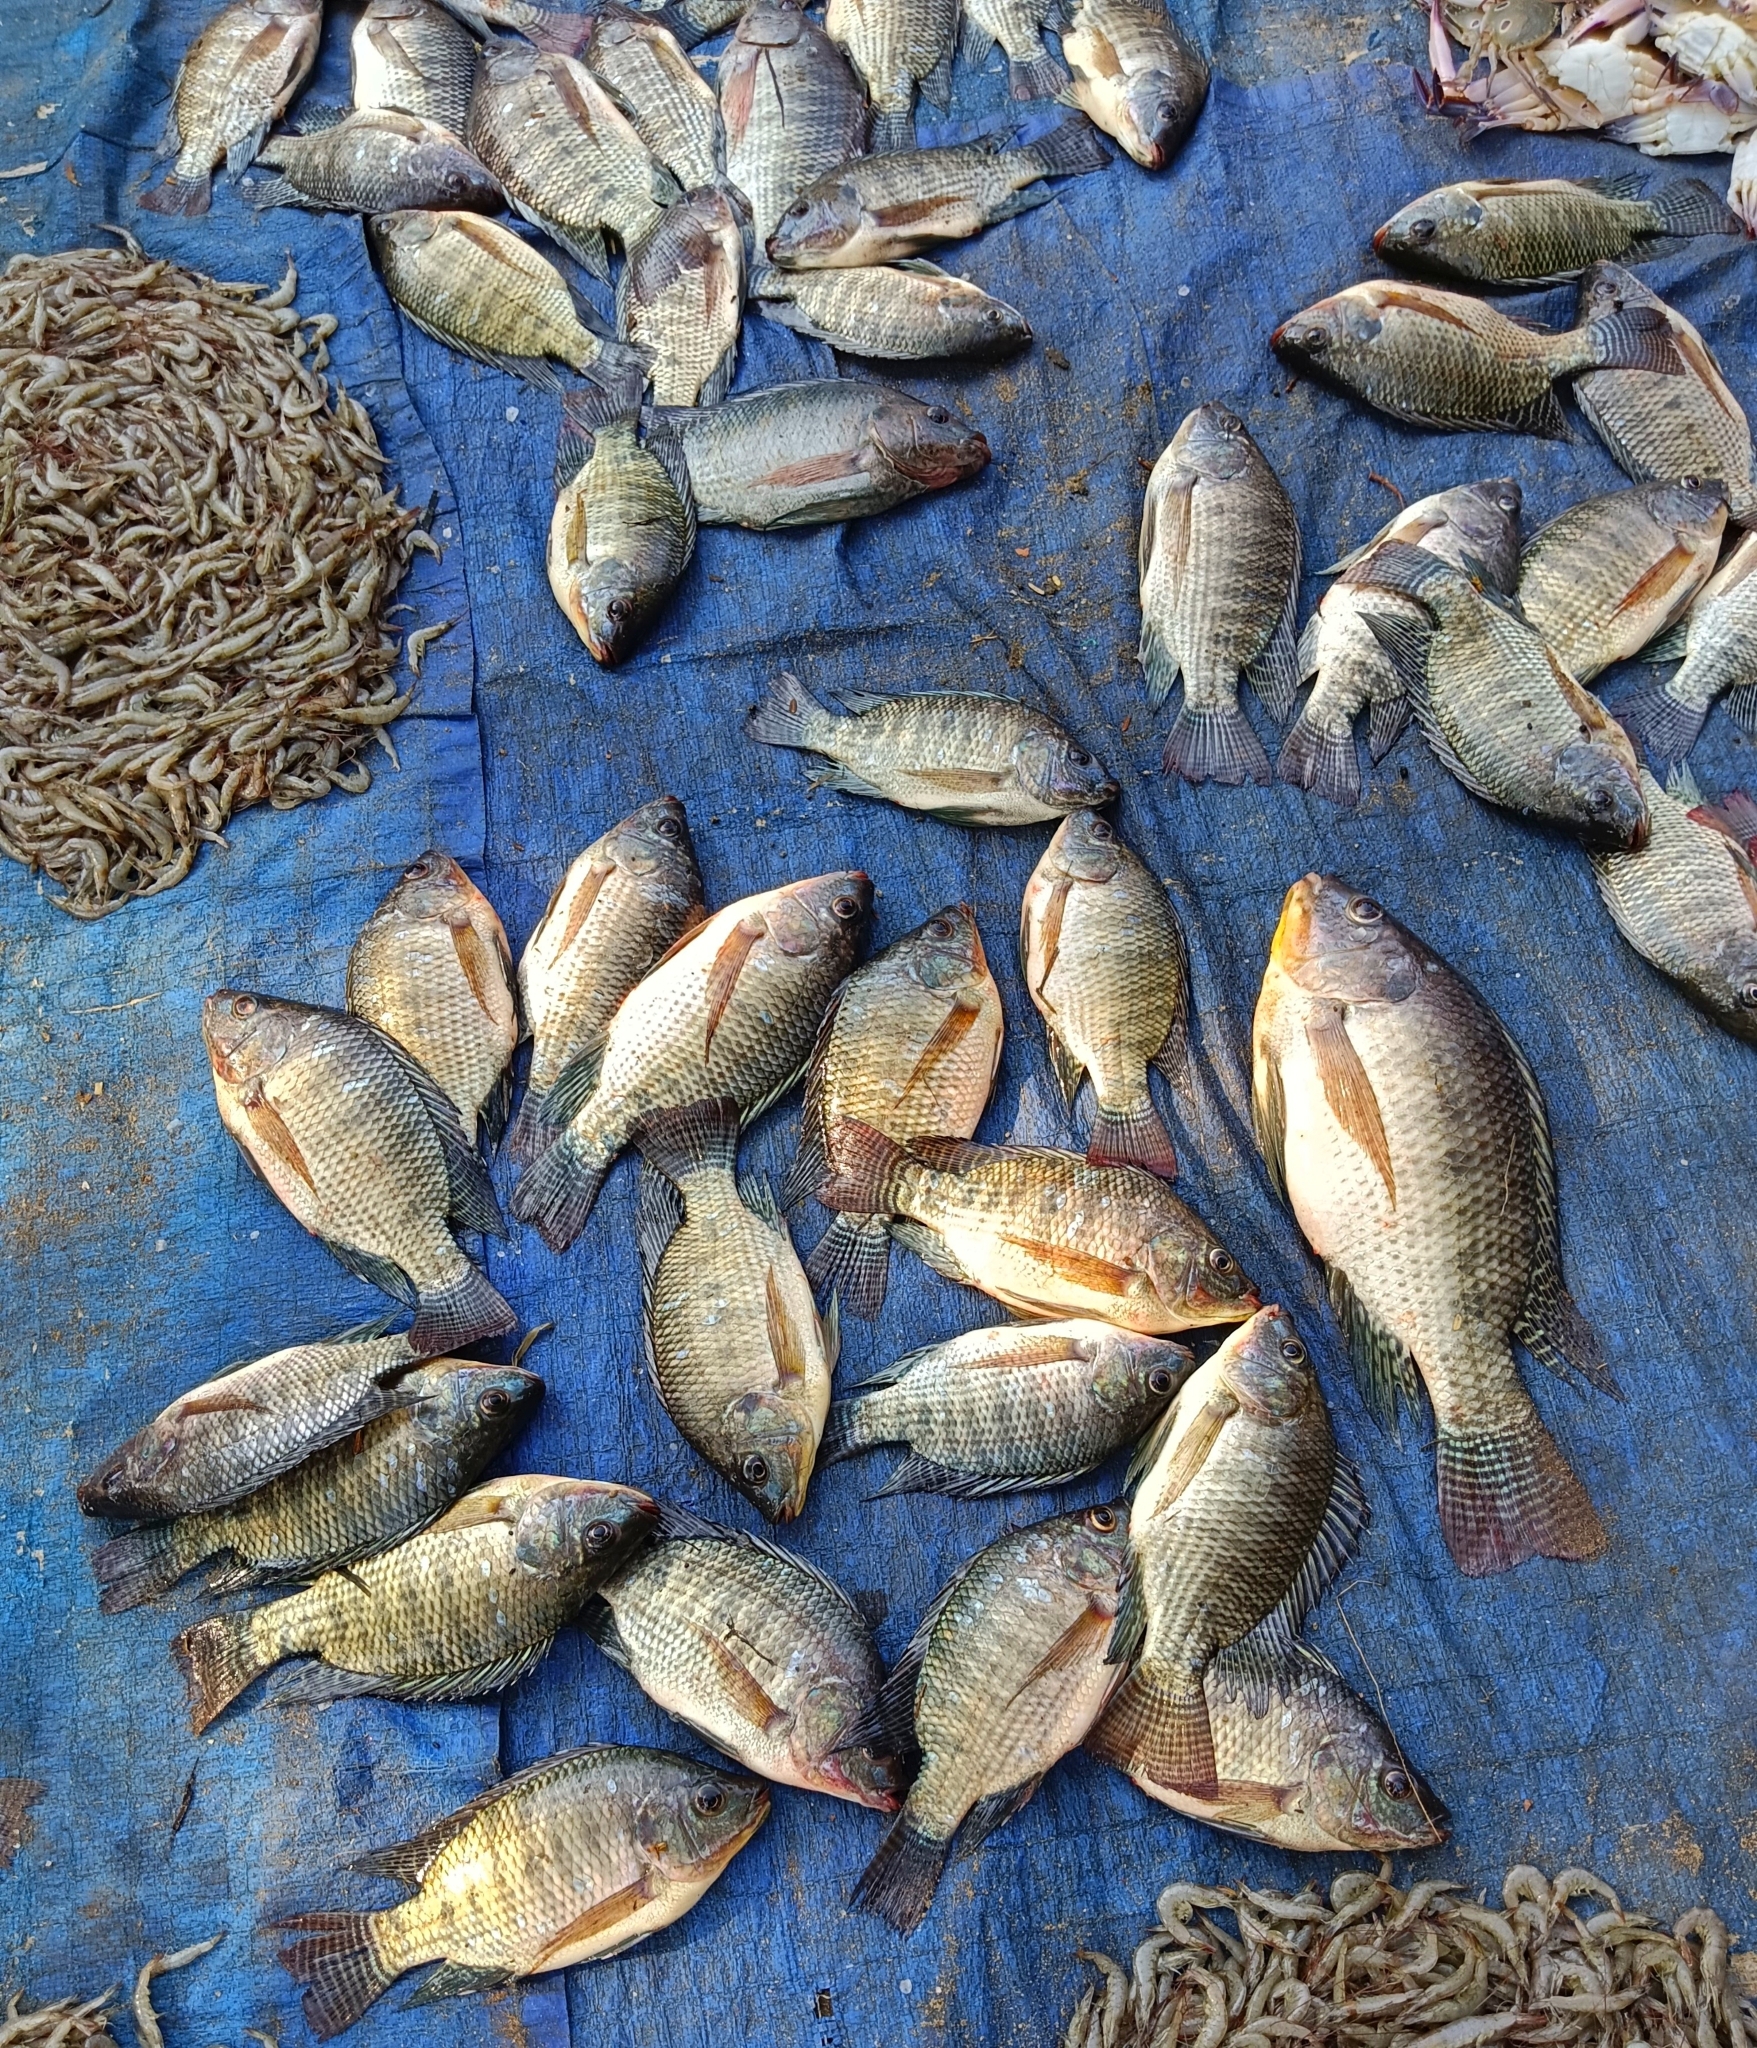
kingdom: Animalia
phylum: Chordata
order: Perciformes
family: Cichlidae
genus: Oreochromis
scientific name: Oreochromis niloticus
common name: Nile tilapia
